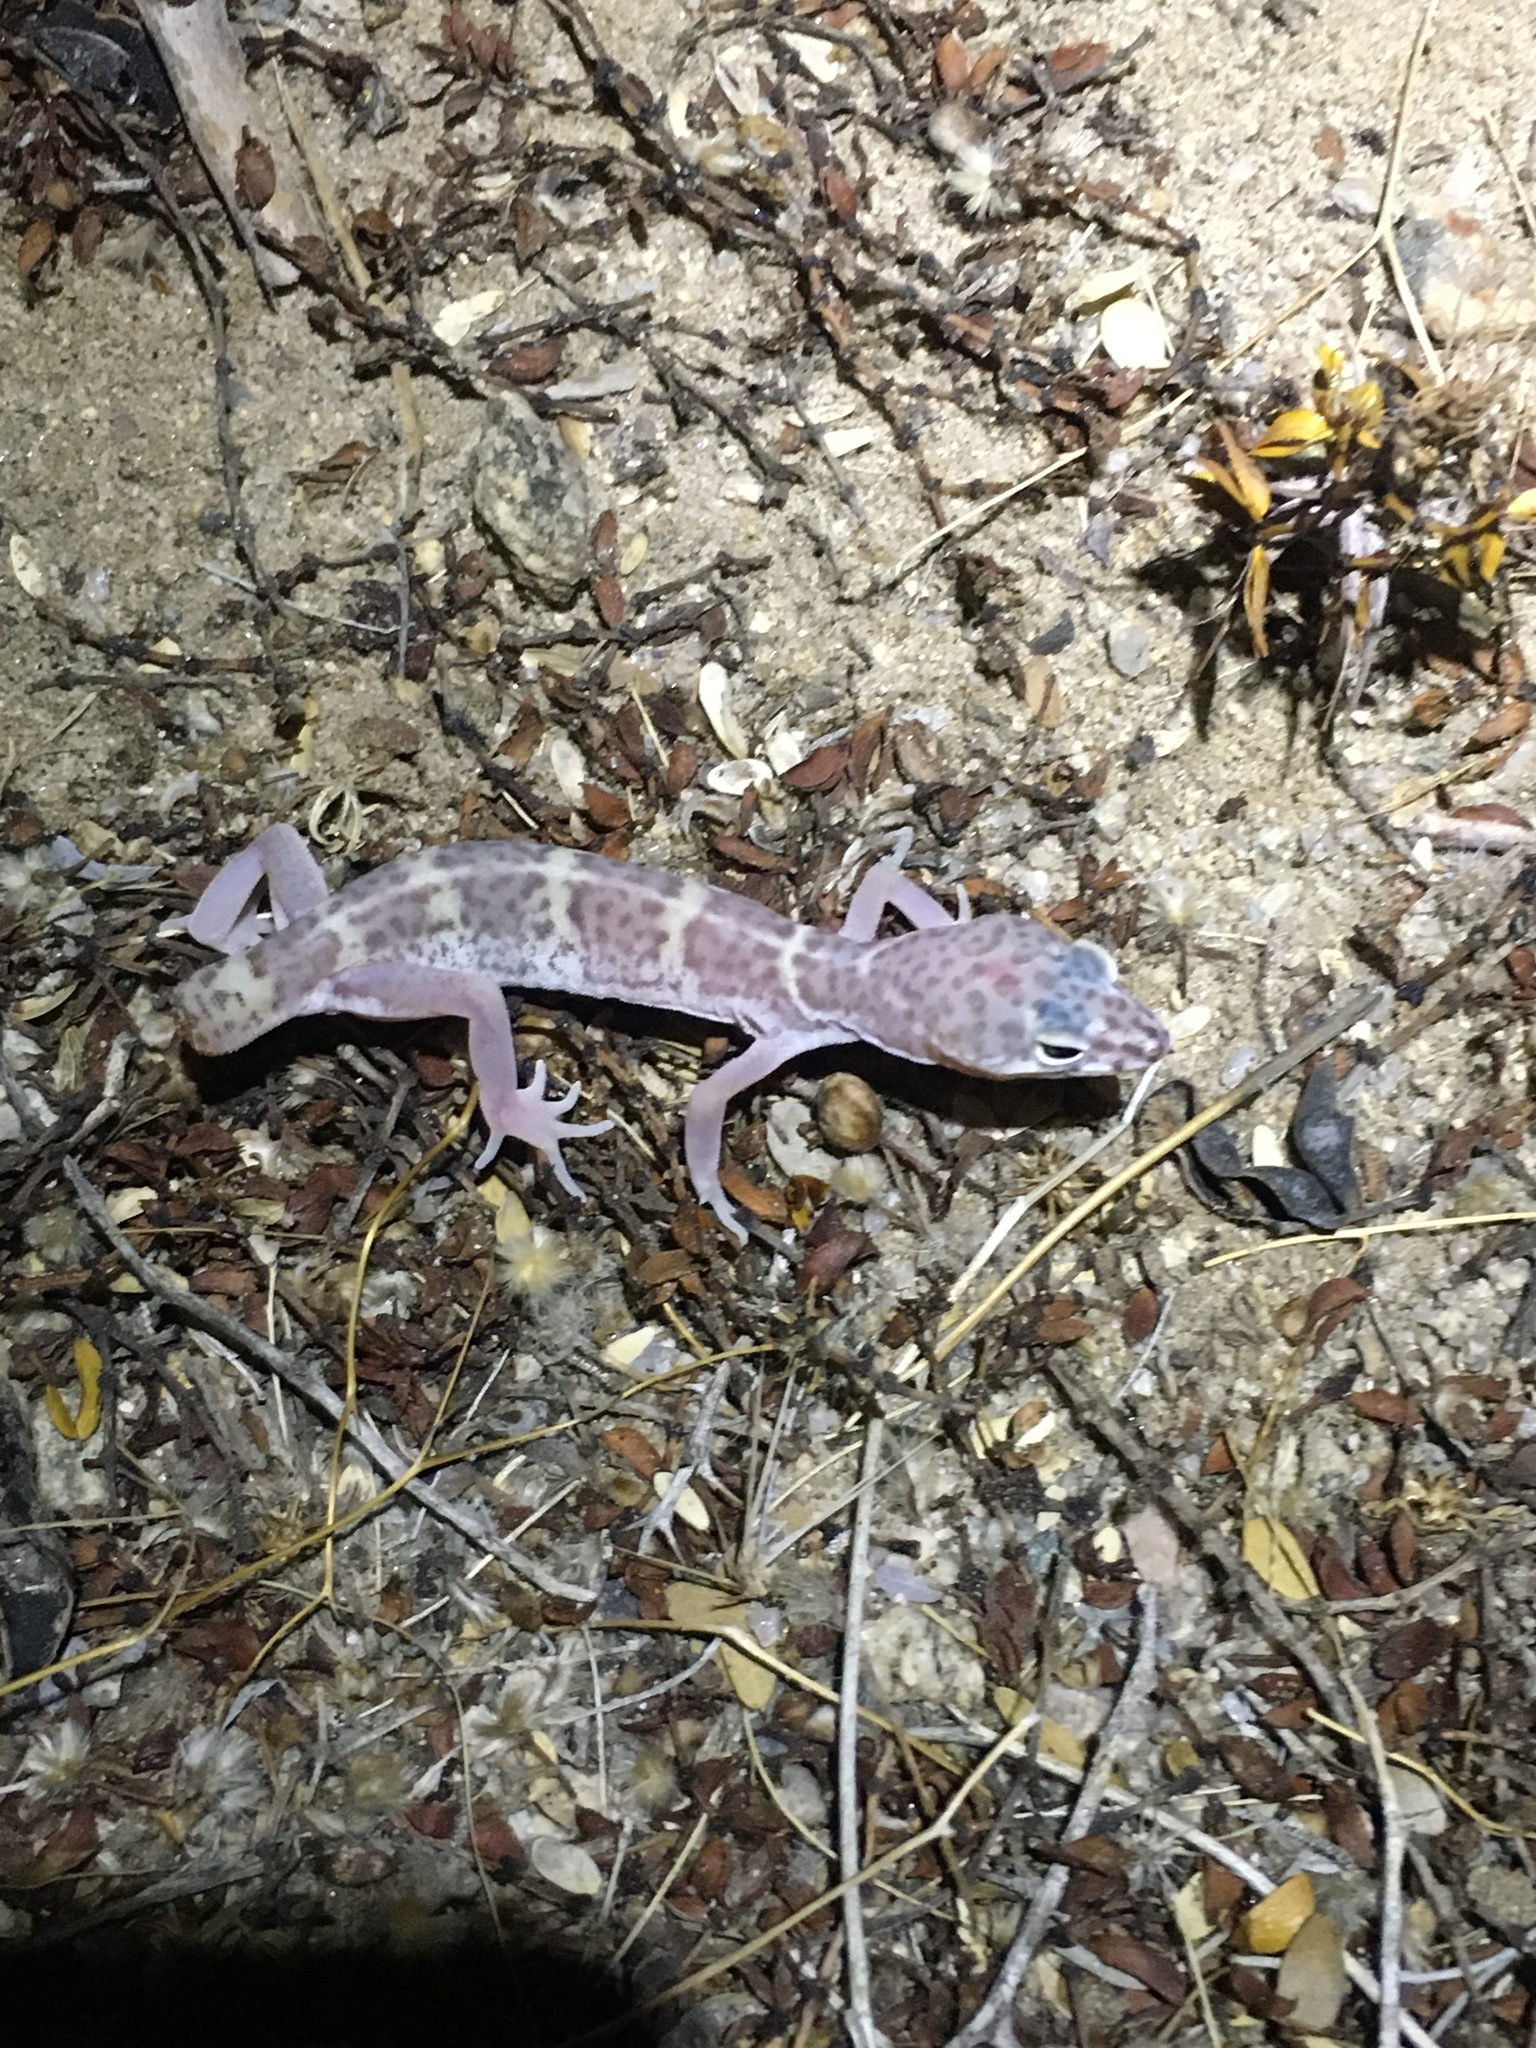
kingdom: Animalia
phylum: Chordata
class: Squamata
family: Eublepharidae
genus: Coleonyx
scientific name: Coleonyx variegatus
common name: Western banded gecko
